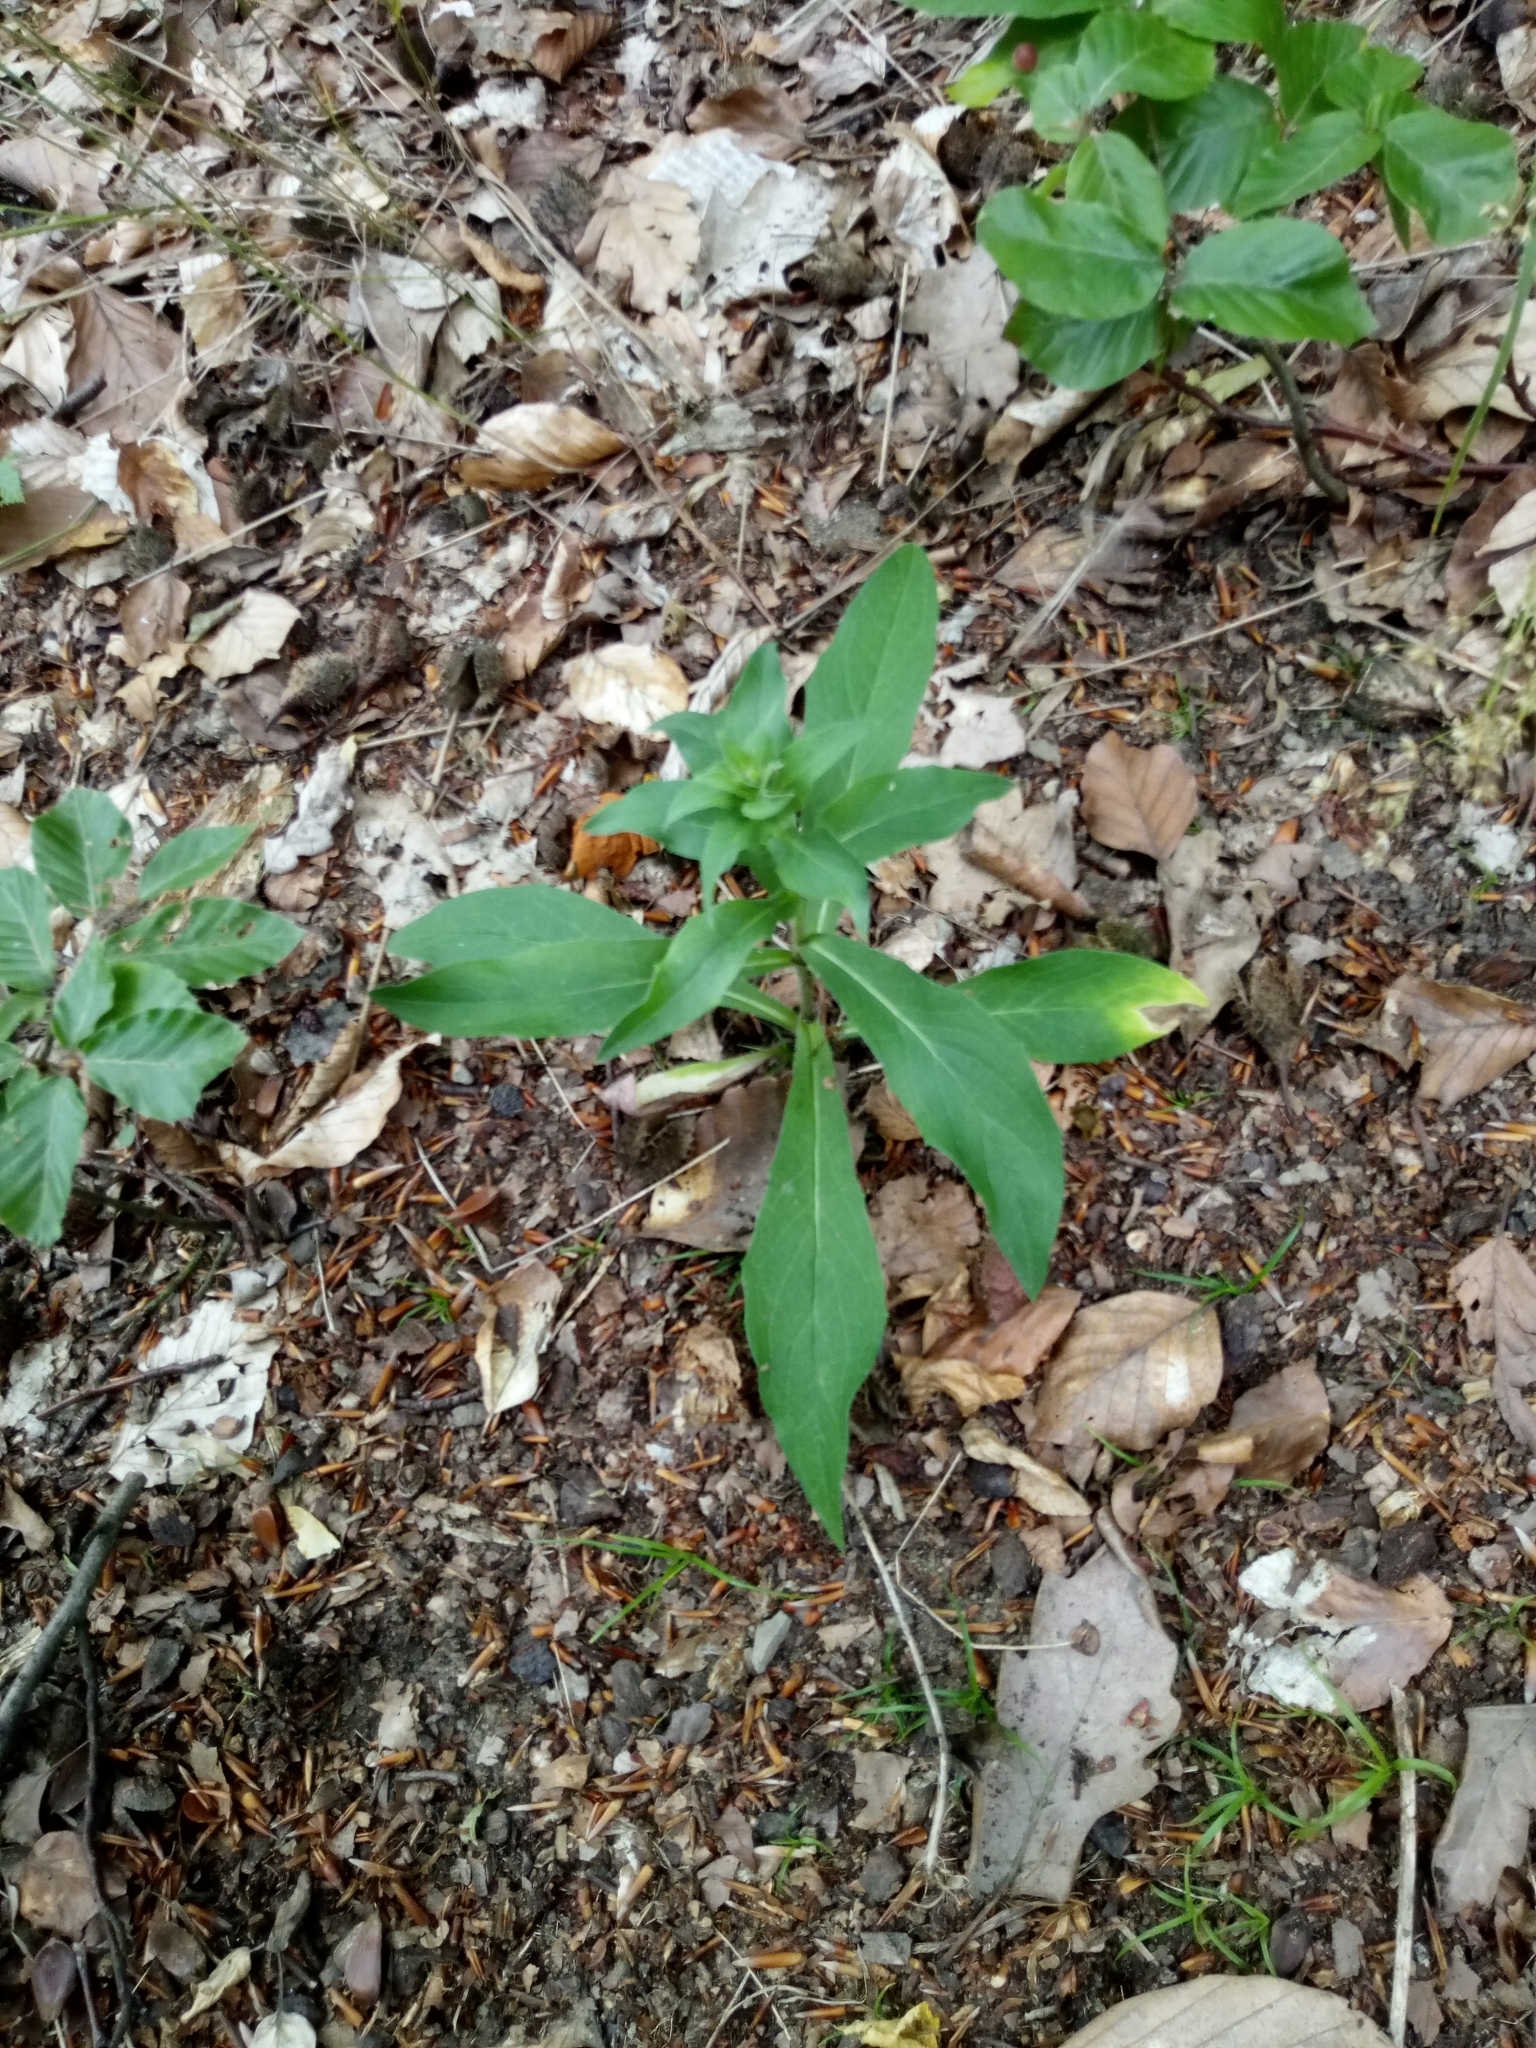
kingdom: Plantae
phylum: Tracheophyta
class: Magnoliopsida
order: Asterales
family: Asteraceae
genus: Hieracium
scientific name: Hieracium sabaudum
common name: New england hawkweed
